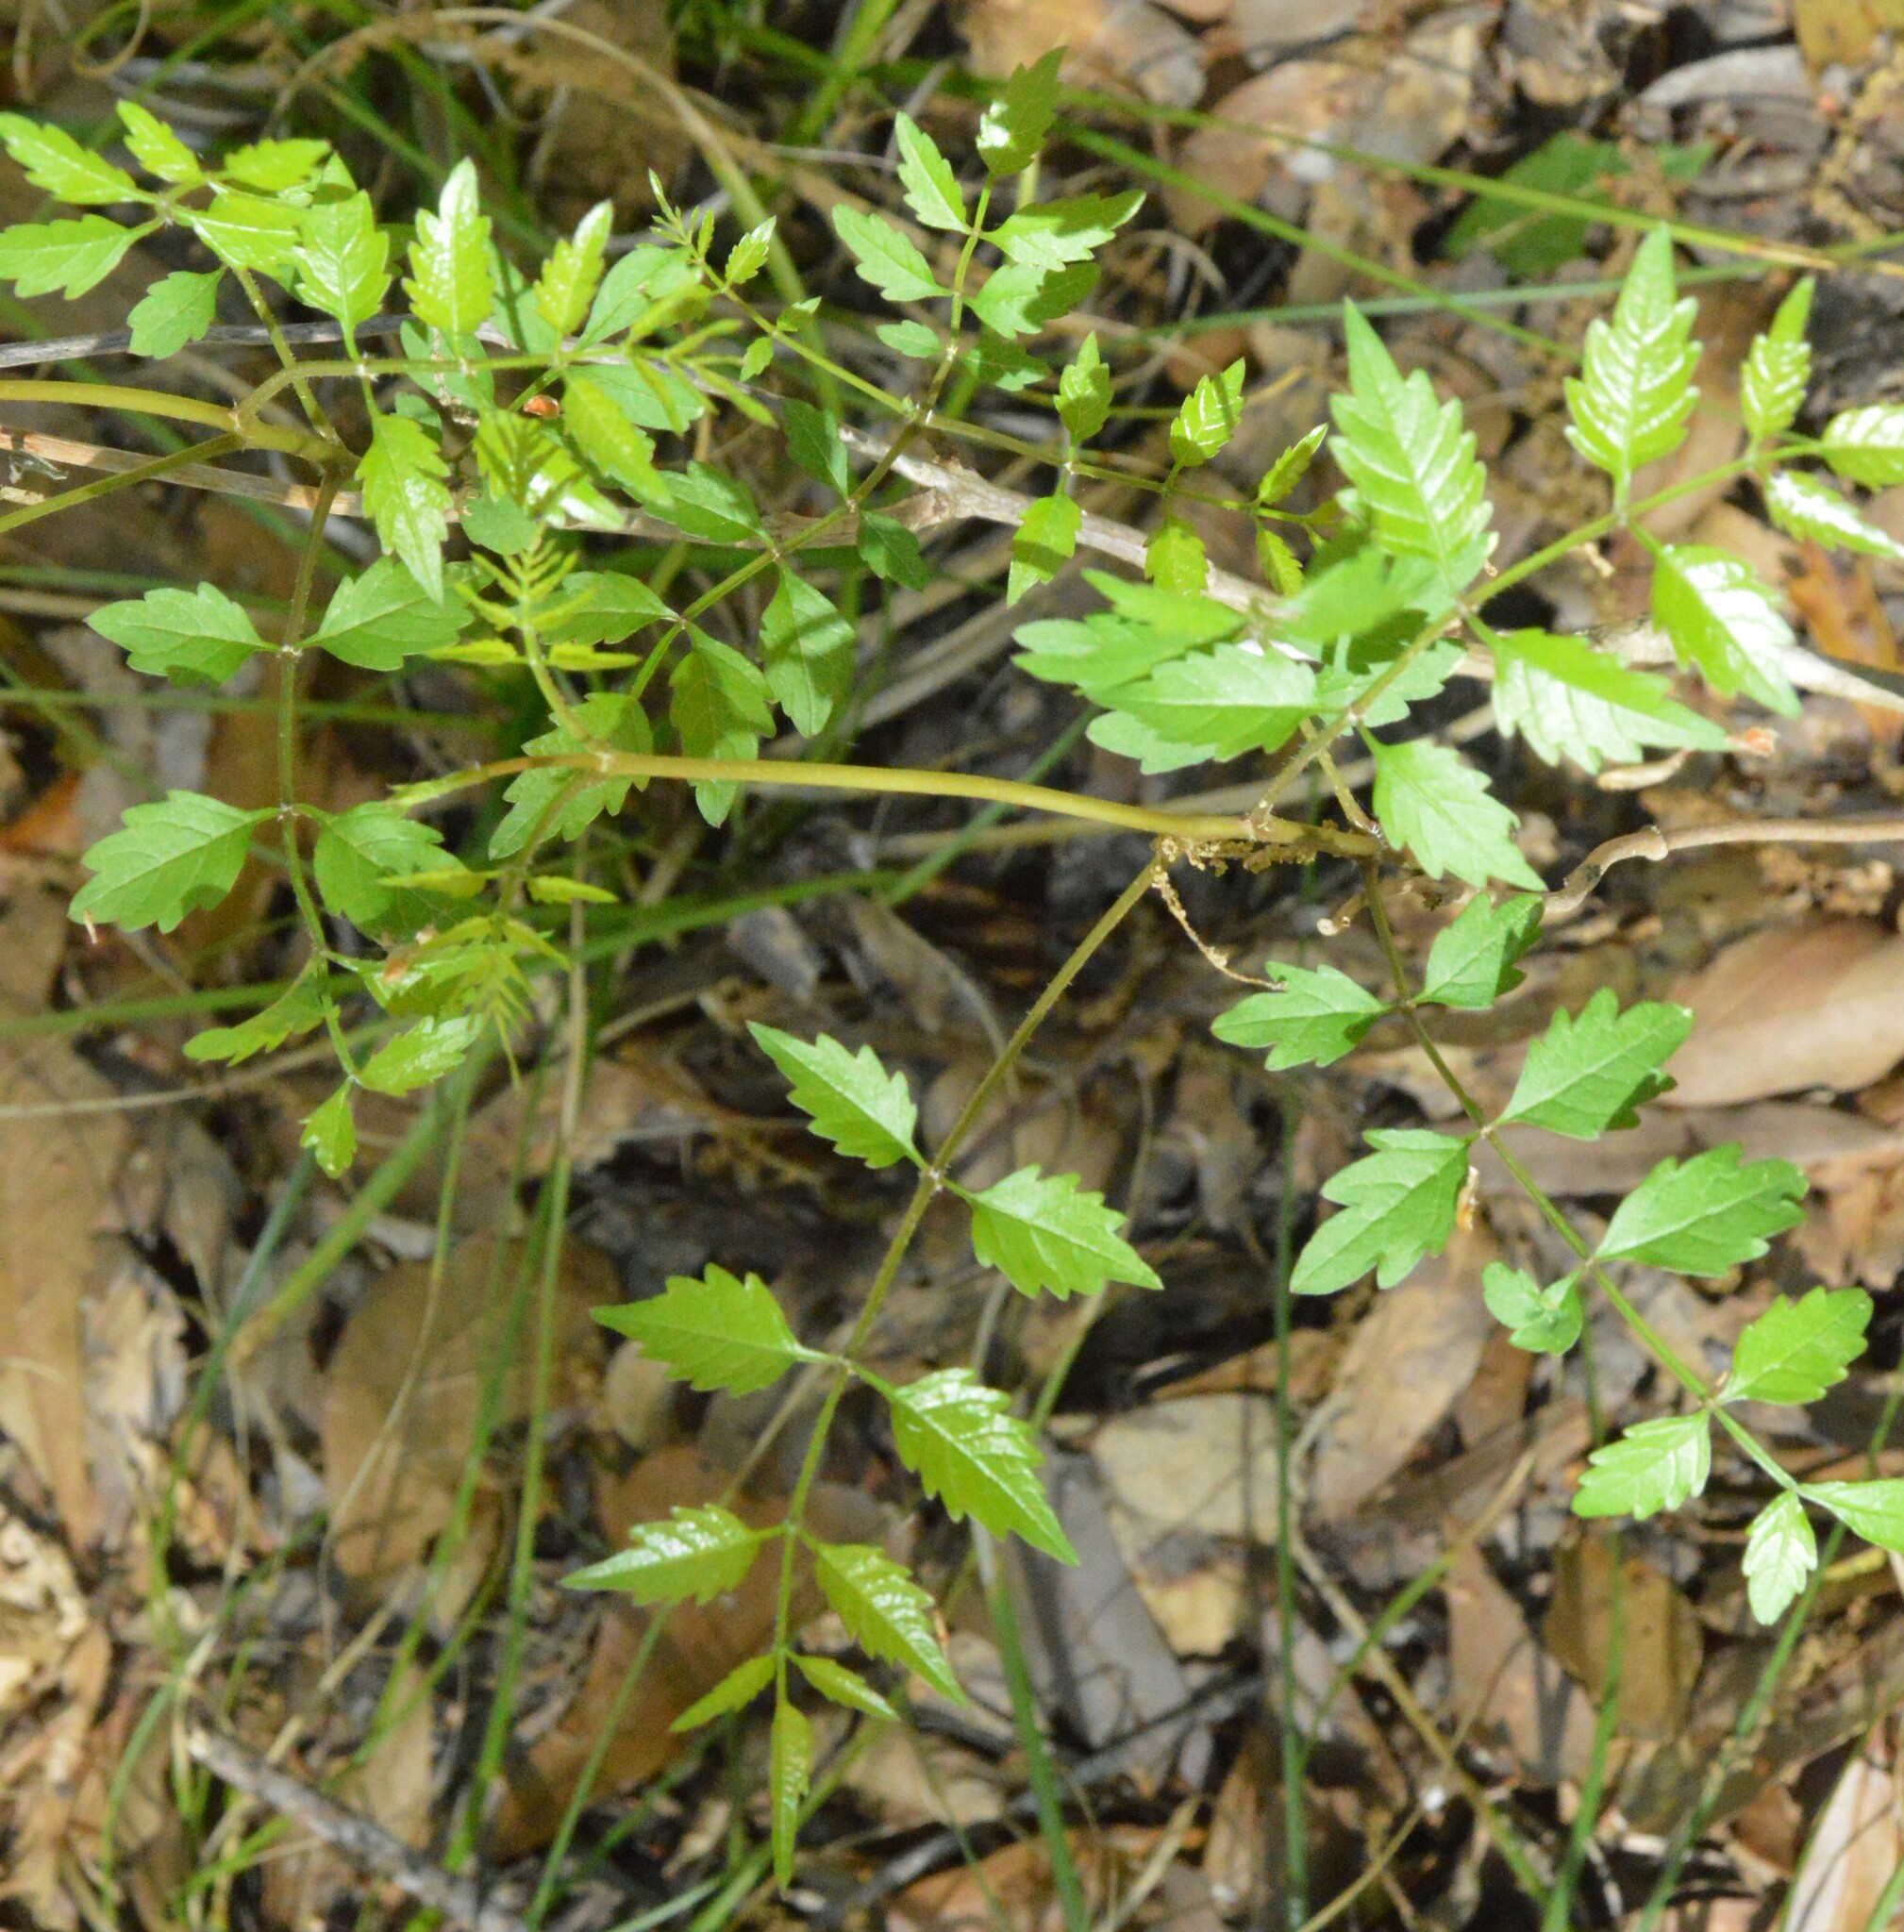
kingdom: Plantae
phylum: Tracheophyta
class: Magnoliopsida
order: Lamiales
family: Bignoniaceae
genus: Campsis
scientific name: Campsis radicans
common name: Trumpet-creeper
